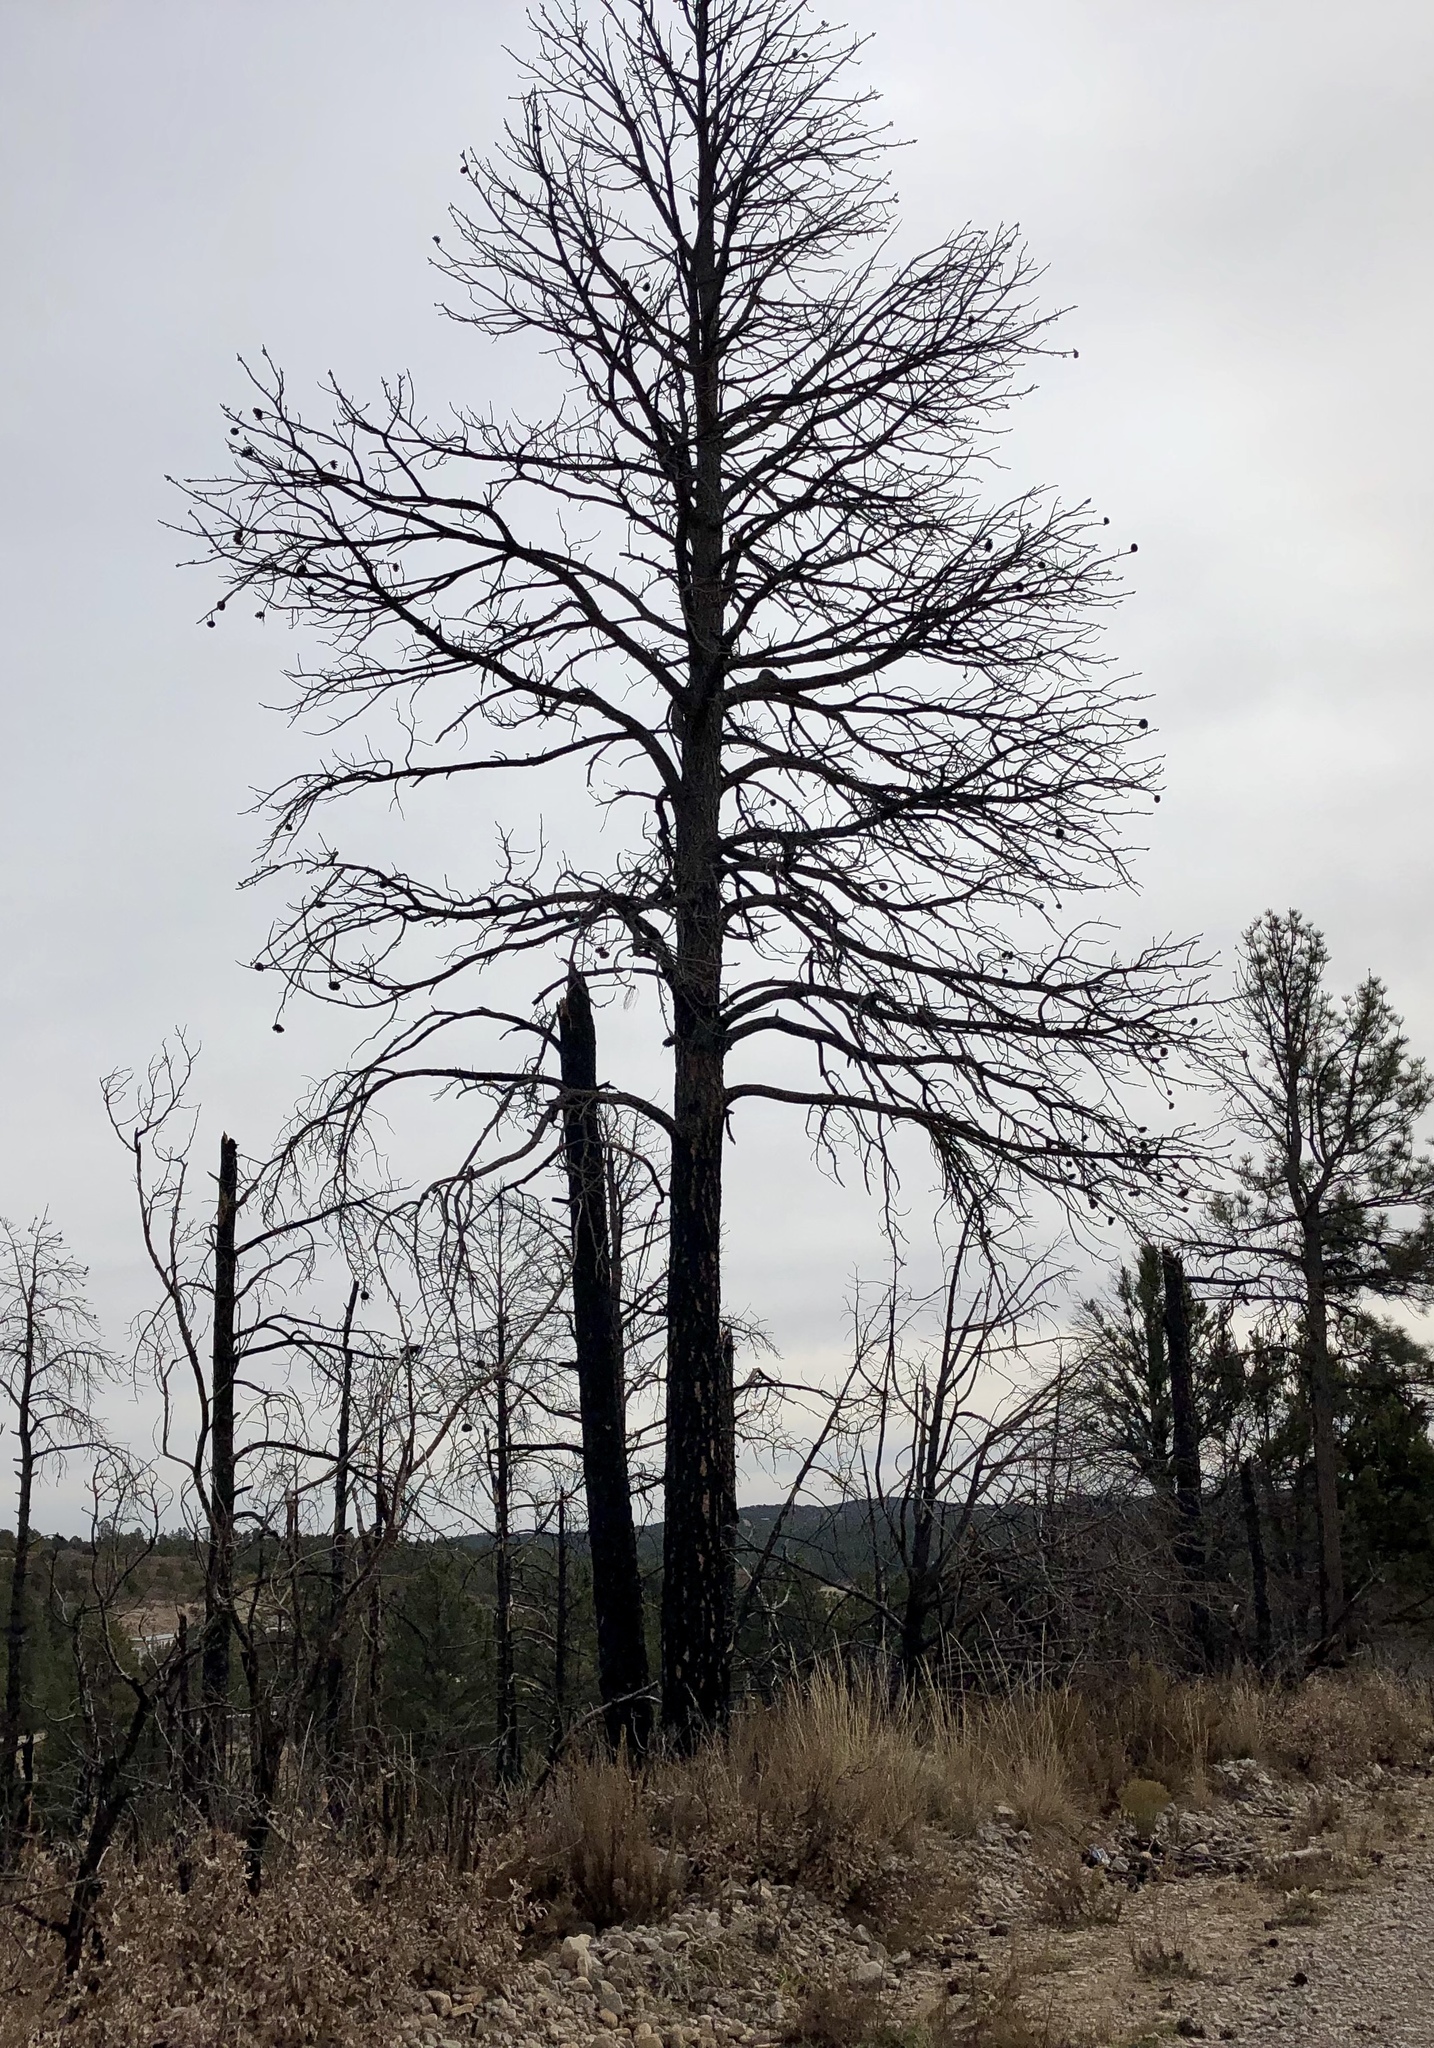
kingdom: Plantae
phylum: Tracheophyta
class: Pinopsida
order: Pinales
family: Pinaceae
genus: Pinus
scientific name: Pinus ponderosa
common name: Western yellow-pine
